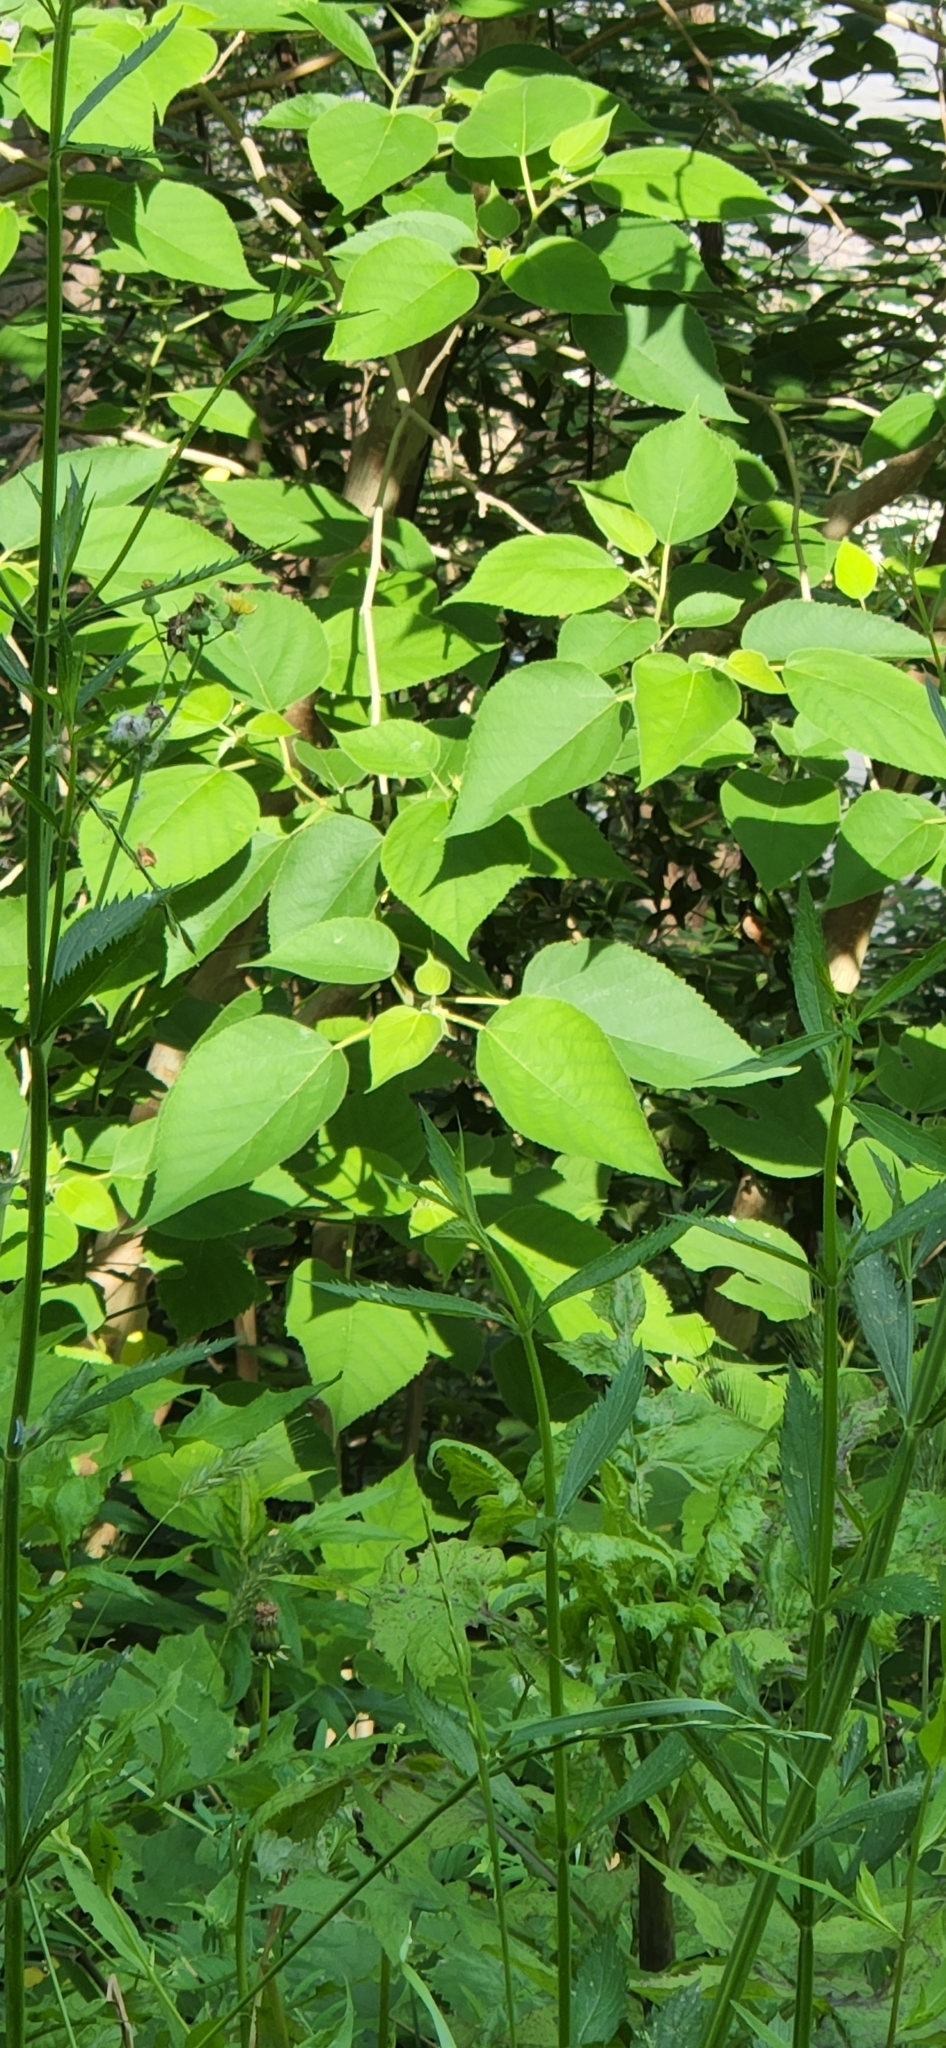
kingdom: Plantae
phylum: Tracheophyta
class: Magnoliopsida
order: Rosales
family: Moraceae
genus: Broussonetia
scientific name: Broussonetia papyrifera
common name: Paper mulberry
